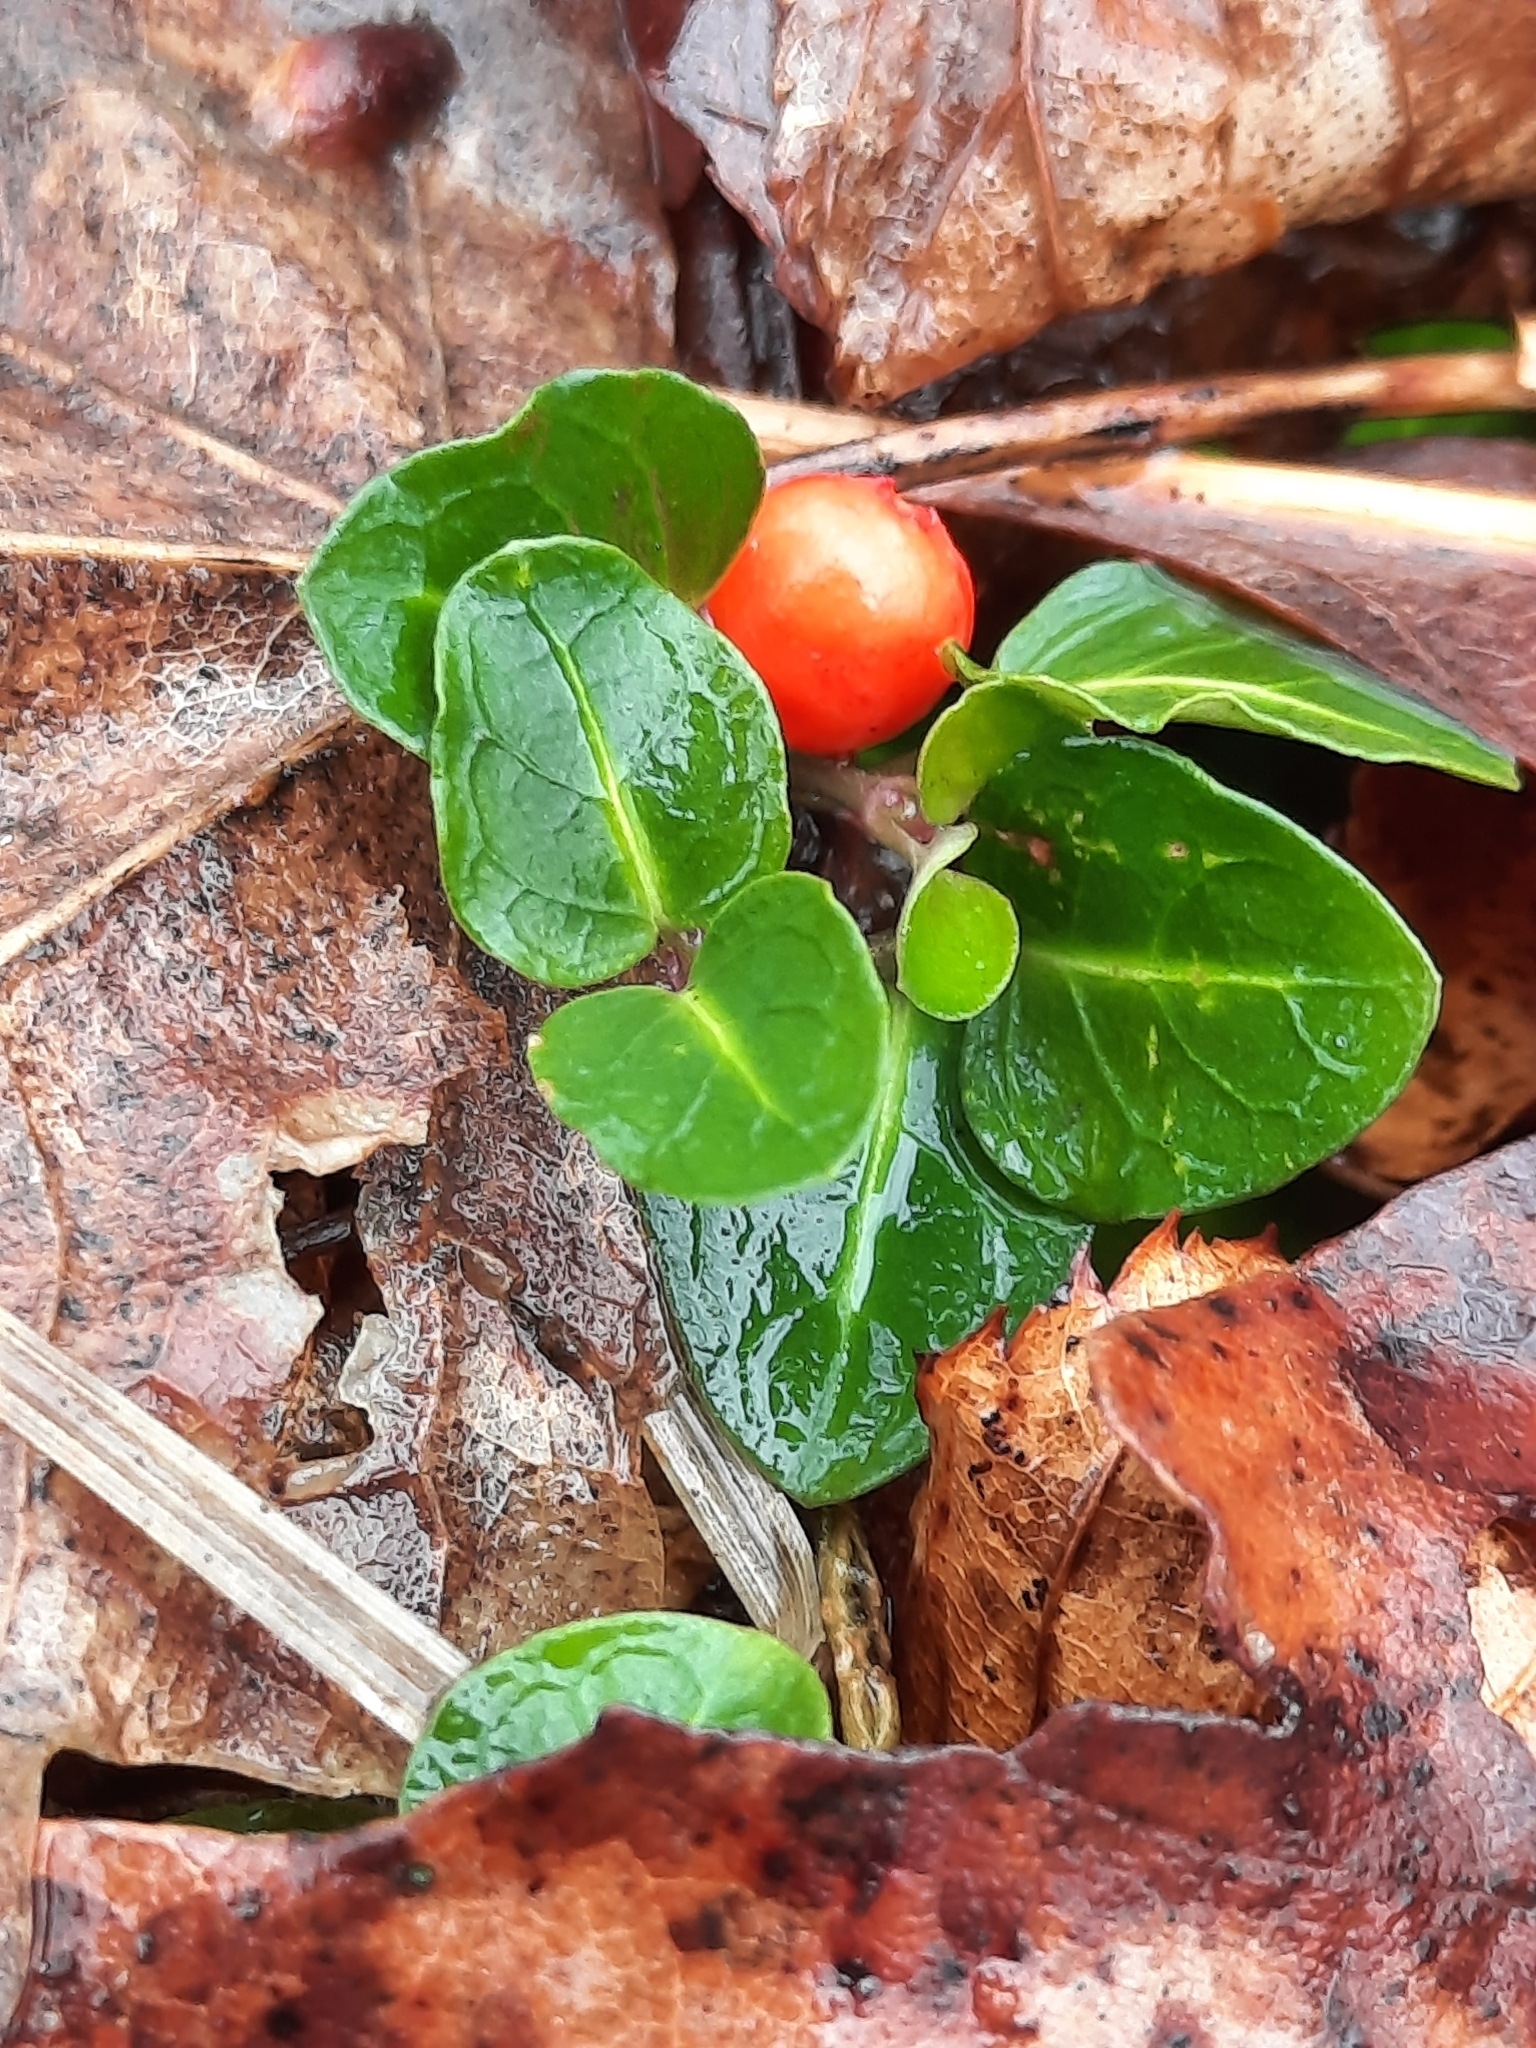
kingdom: Plantae
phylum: Tracheophyta
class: Magnoliopsida
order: Gentianales
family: Rubiaceae
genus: Mitchella
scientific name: Mitchella repens
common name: Partridge-berry
